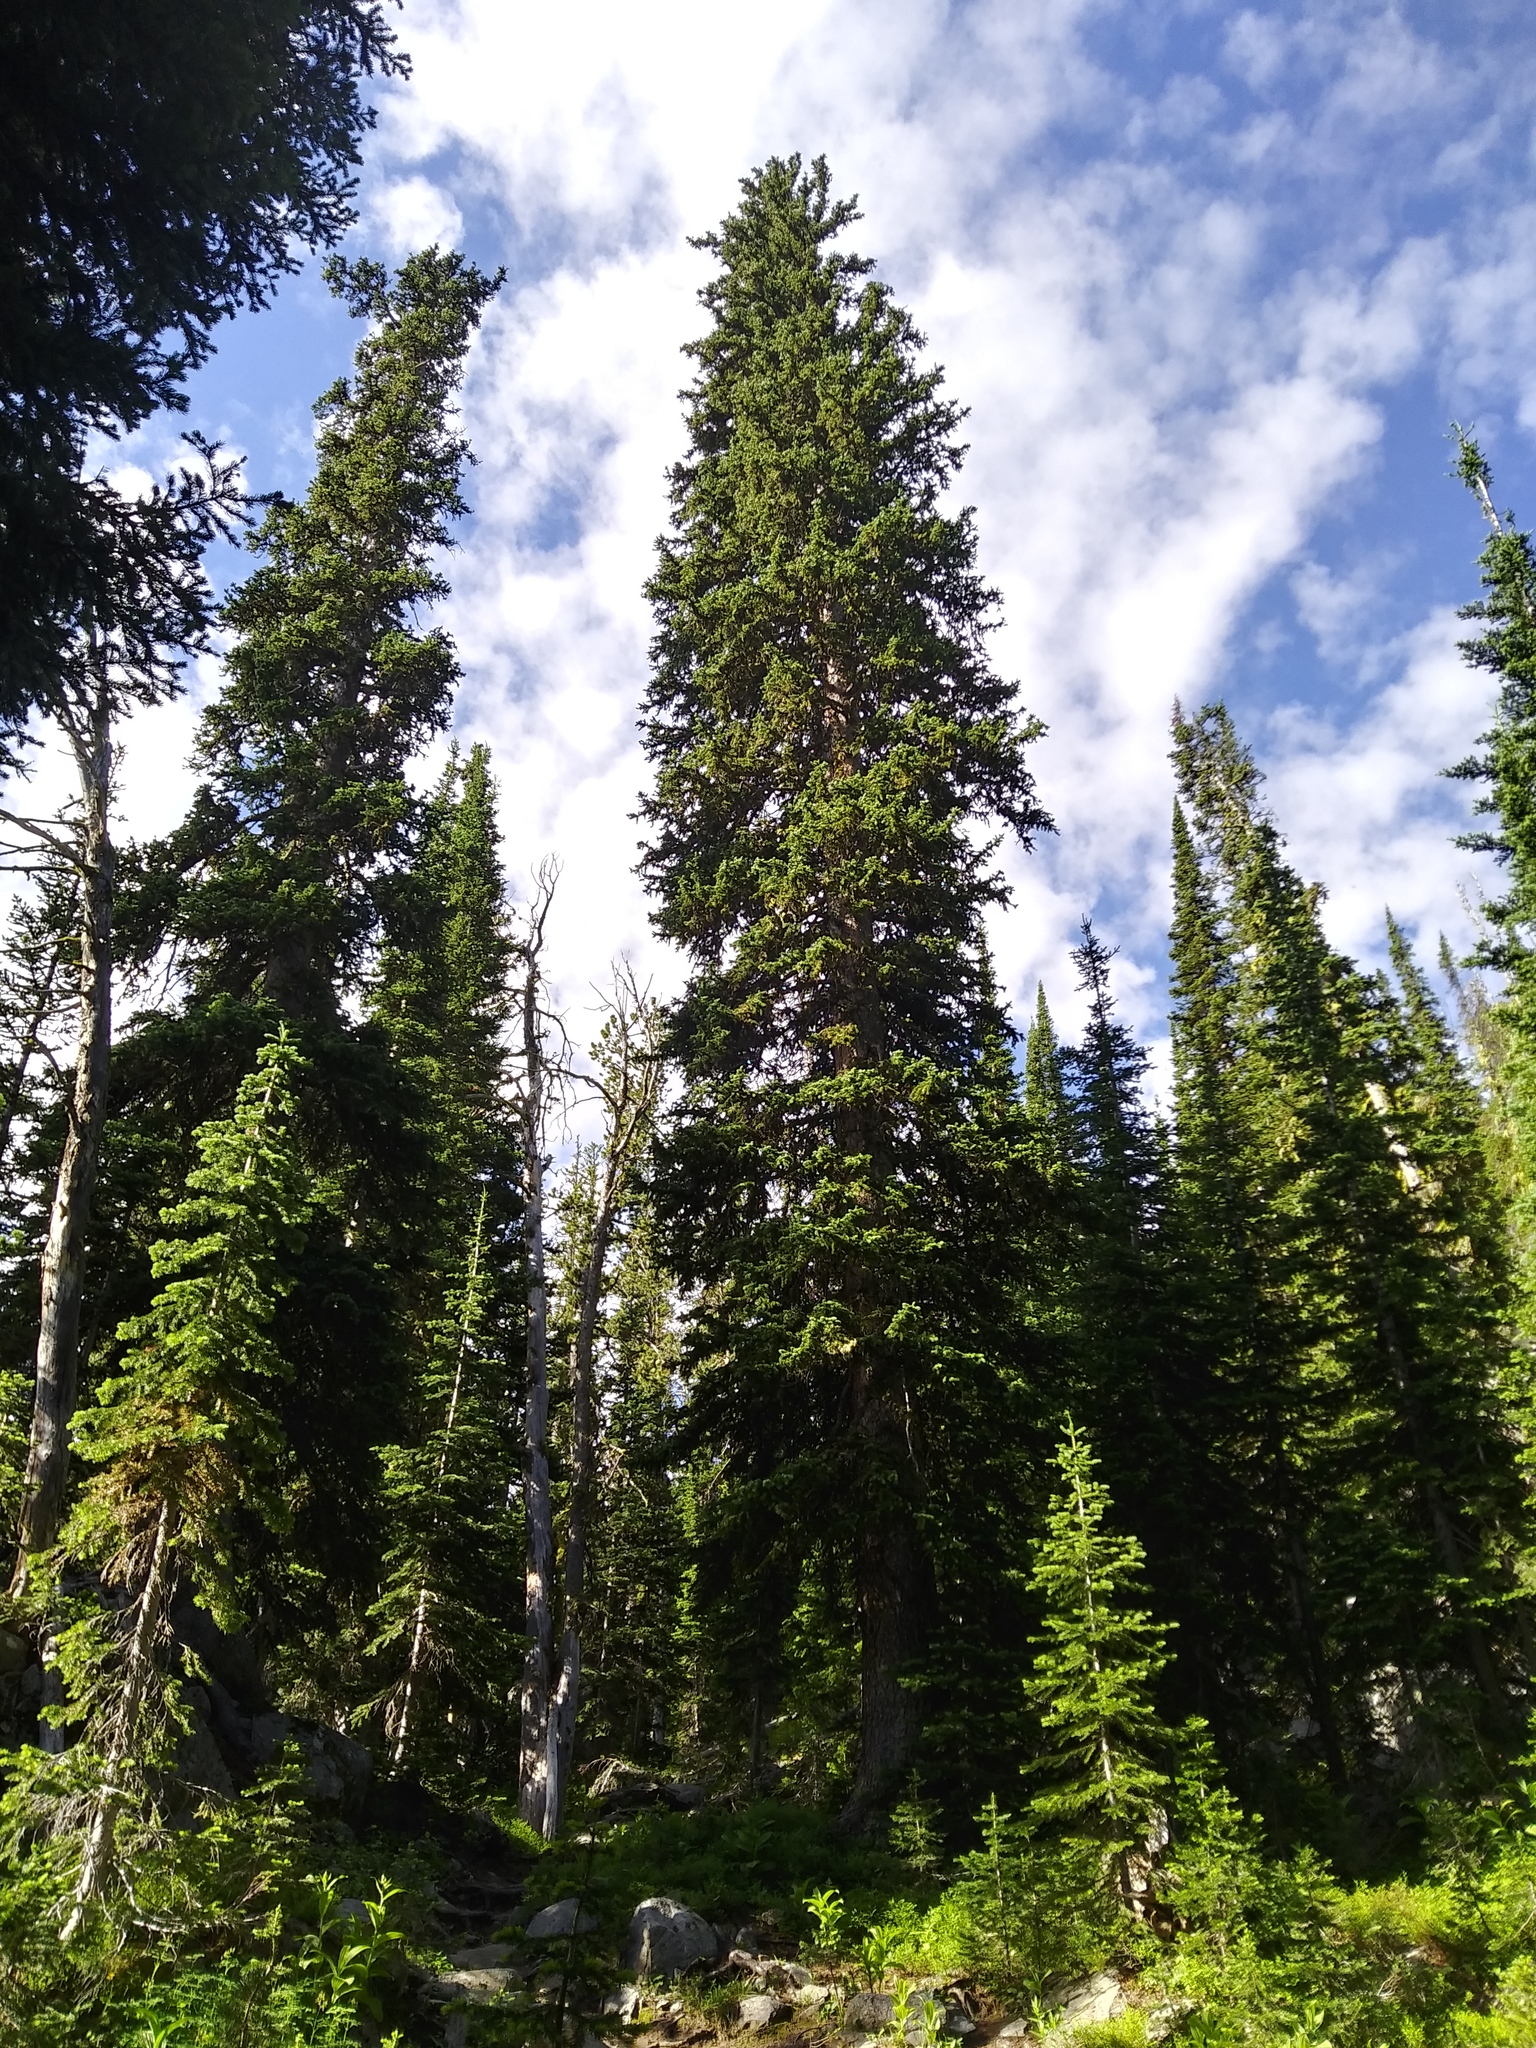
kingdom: Plantae
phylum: Tracheophyta
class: Pinopsida
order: Pinales
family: Pinaceae
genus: Picea
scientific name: Picea engelmannii
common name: Engelmann spruce
